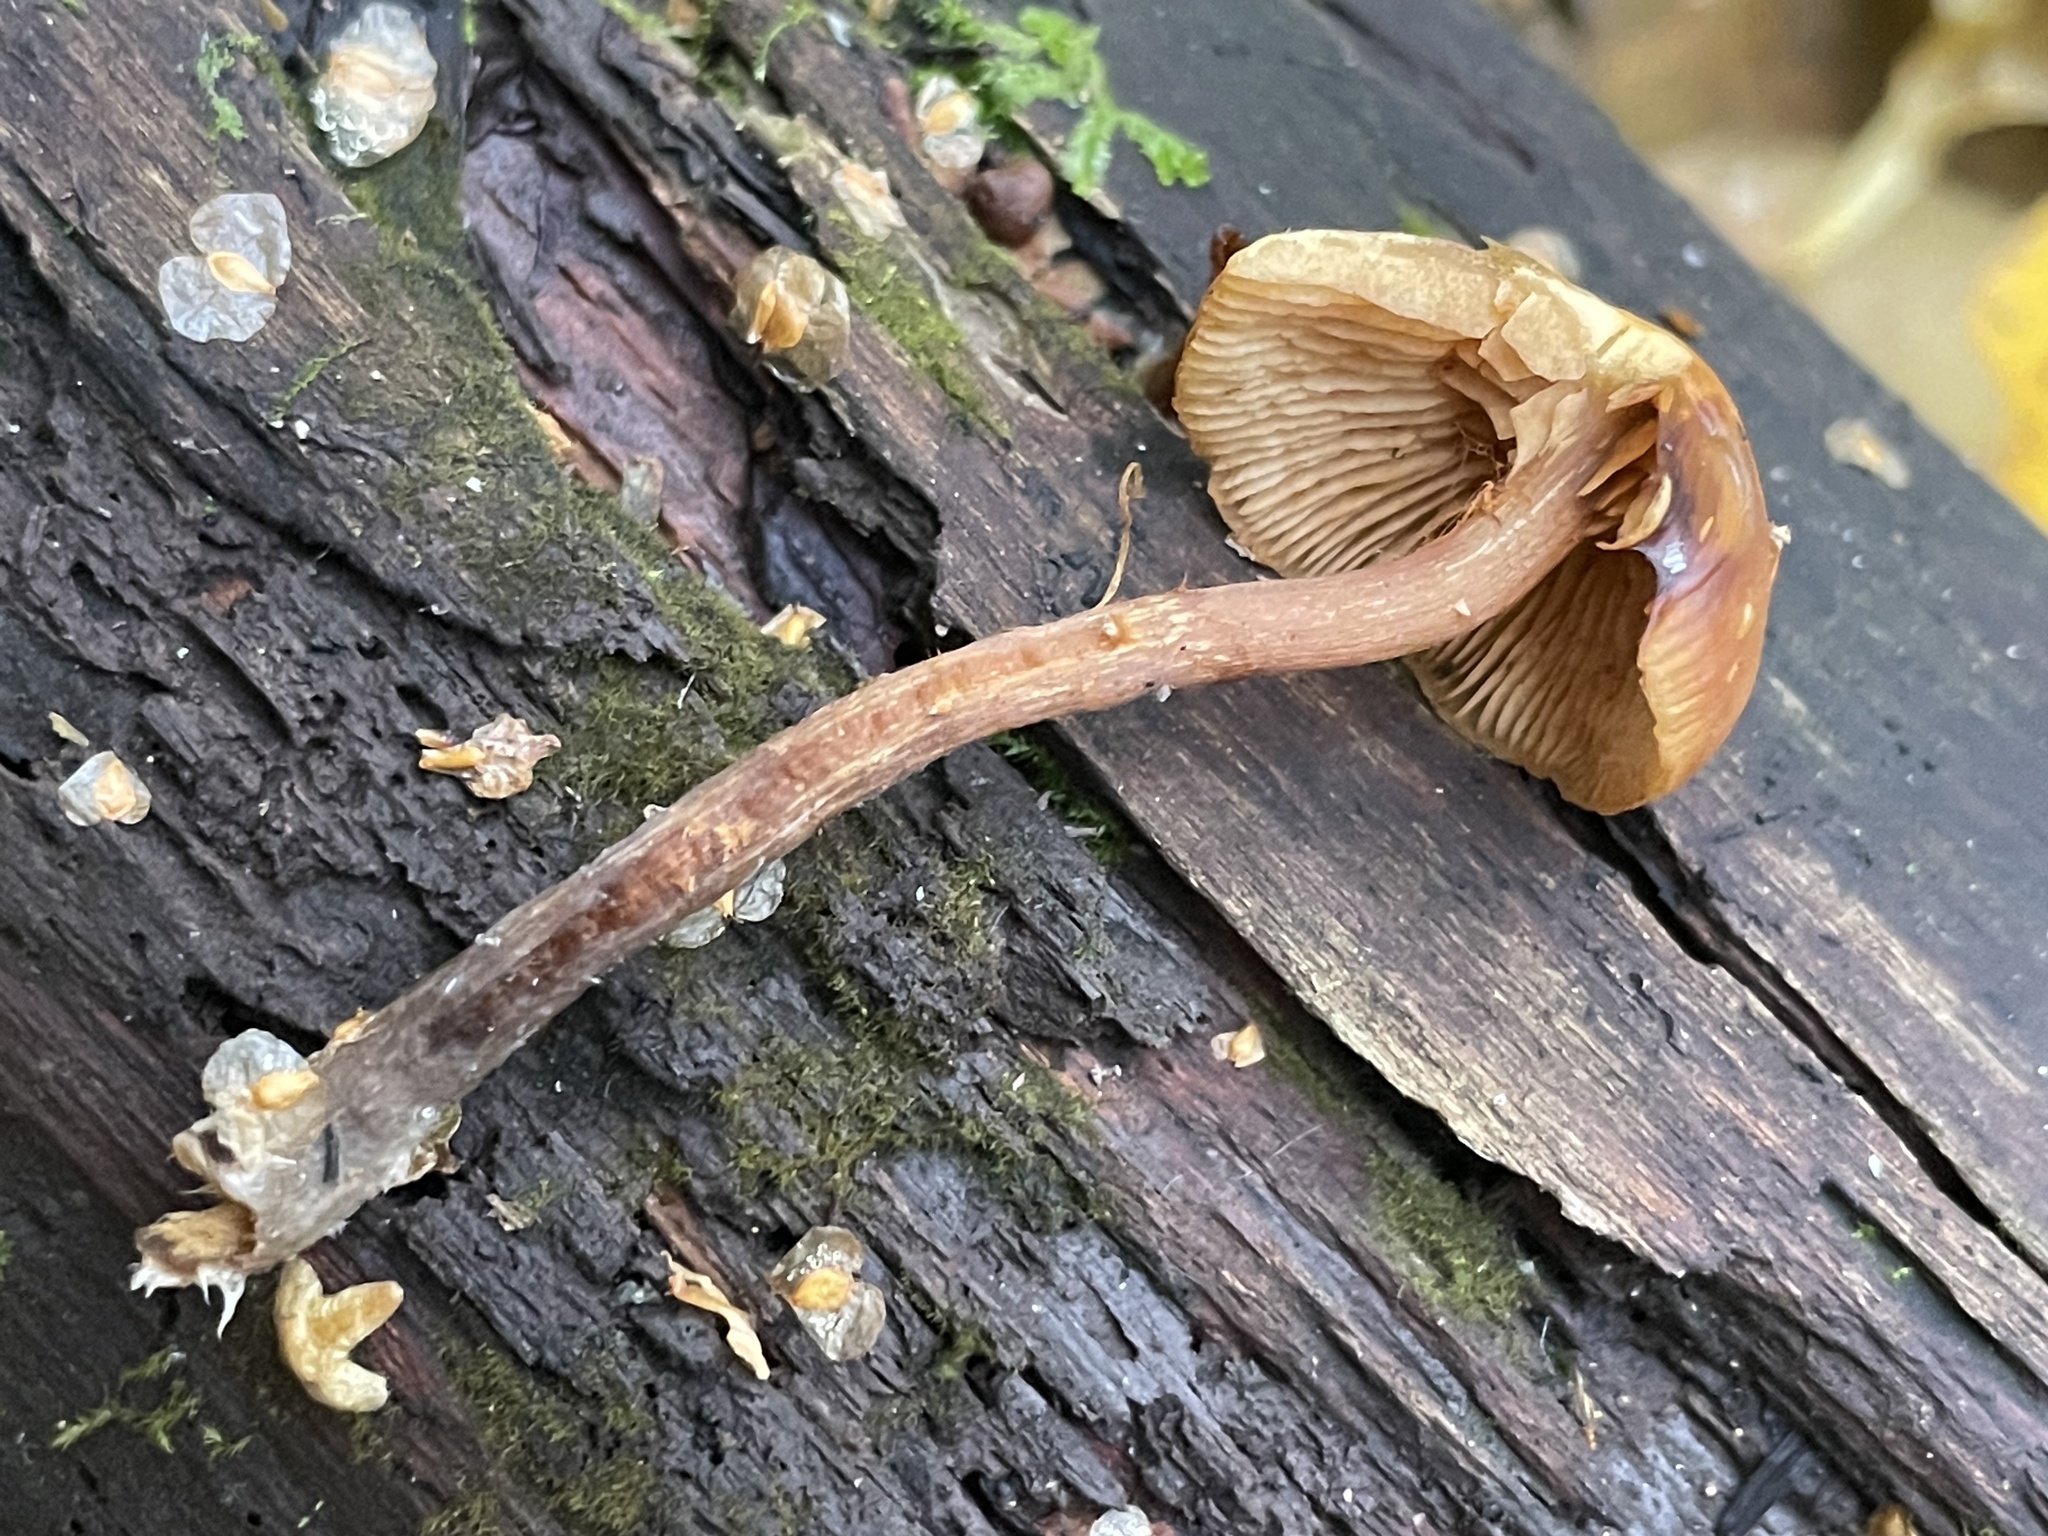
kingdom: Fungi
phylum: Basidiomycota
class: Agaricomycetes
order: Agaricales
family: Strophariaceae
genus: Pholiota
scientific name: Pholiota lignicola
